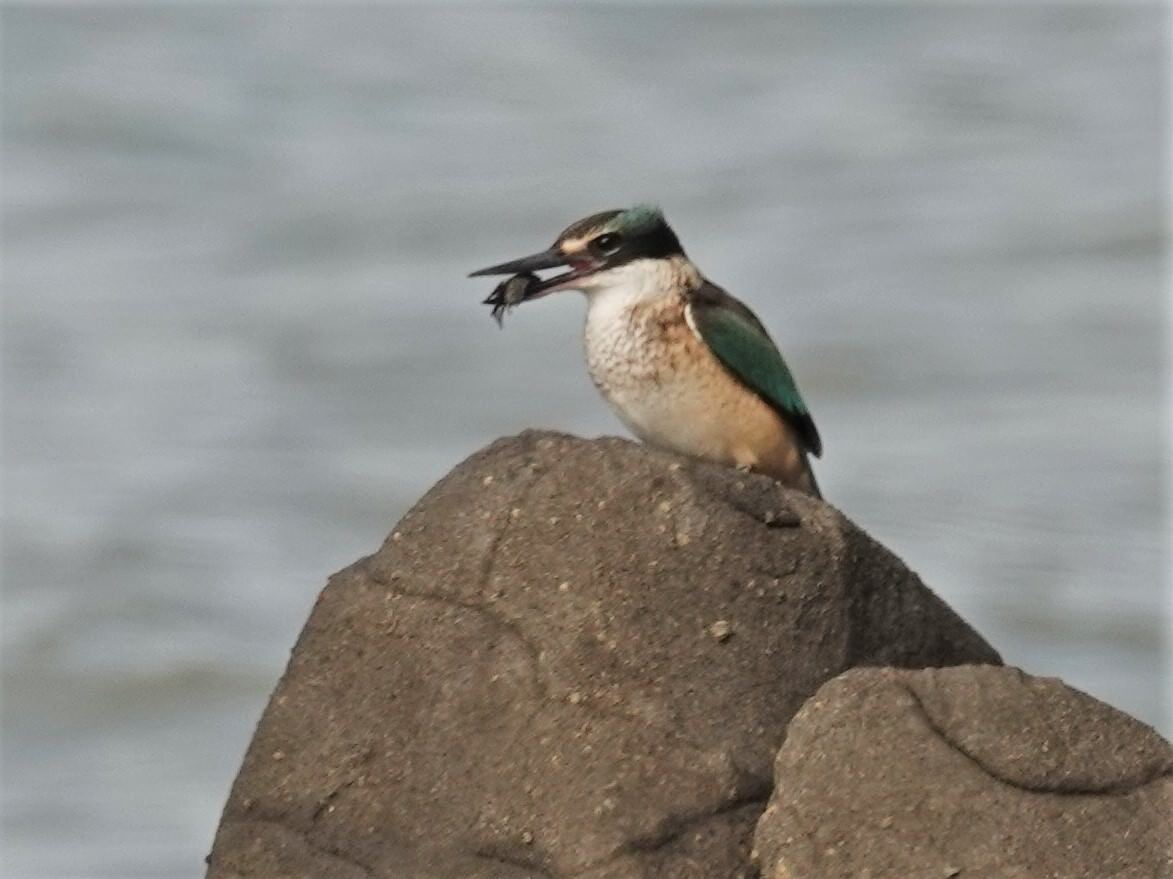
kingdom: Animalia
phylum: Chordata
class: Aves
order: Coraciiformes
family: Alcedinidae
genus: Todiramphus
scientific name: Todiramphus sanctus
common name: Sacred kingfisher
